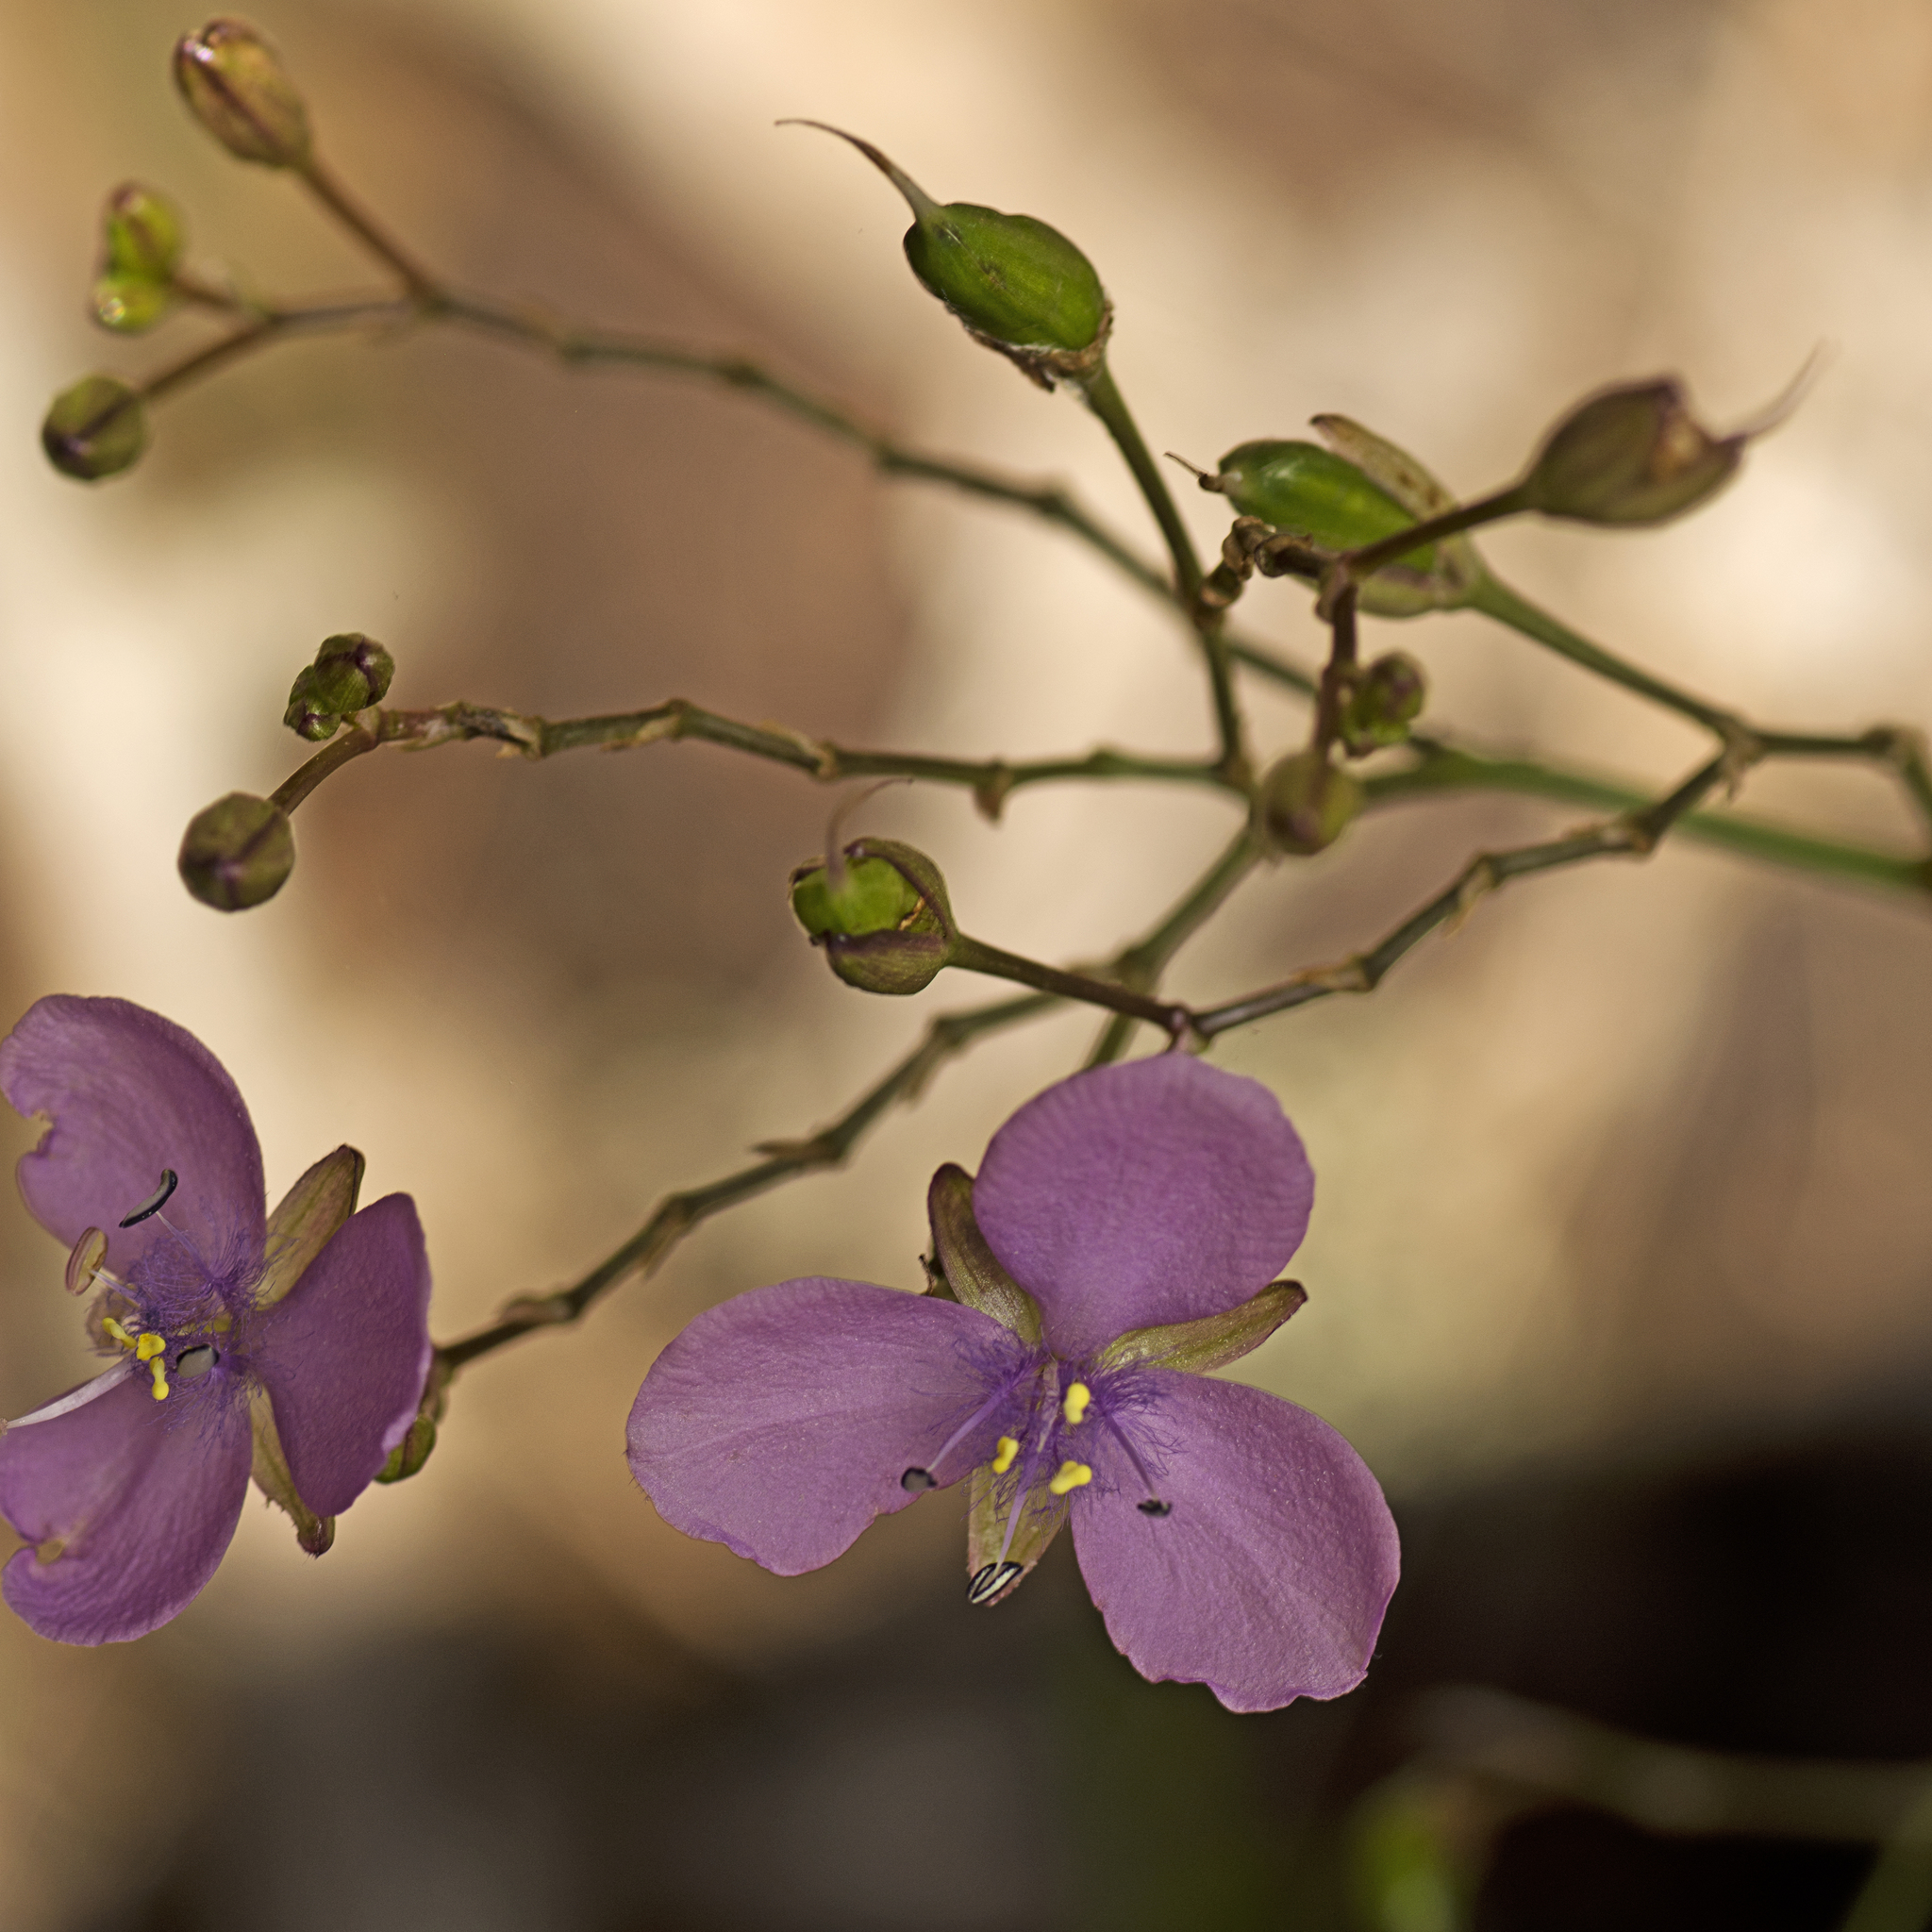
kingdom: Plantae
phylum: Tracheophyta
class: Liliopsida
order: Commelinales
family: Commelinaceae
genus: Murdannia
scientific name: Murdannia graminea
